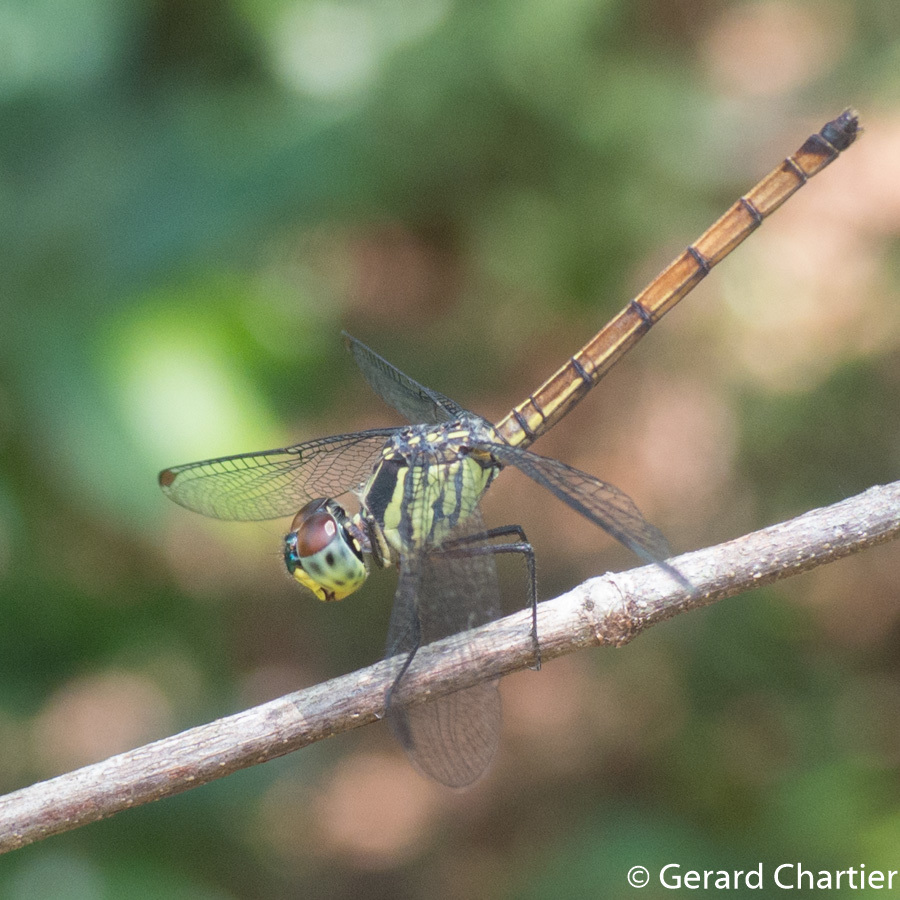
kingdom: Animalia
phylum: Arthropoda
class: Insecta
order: Odonata
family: Libellulidae
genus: Nesoxenia
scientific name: Nesoxenia lineata
